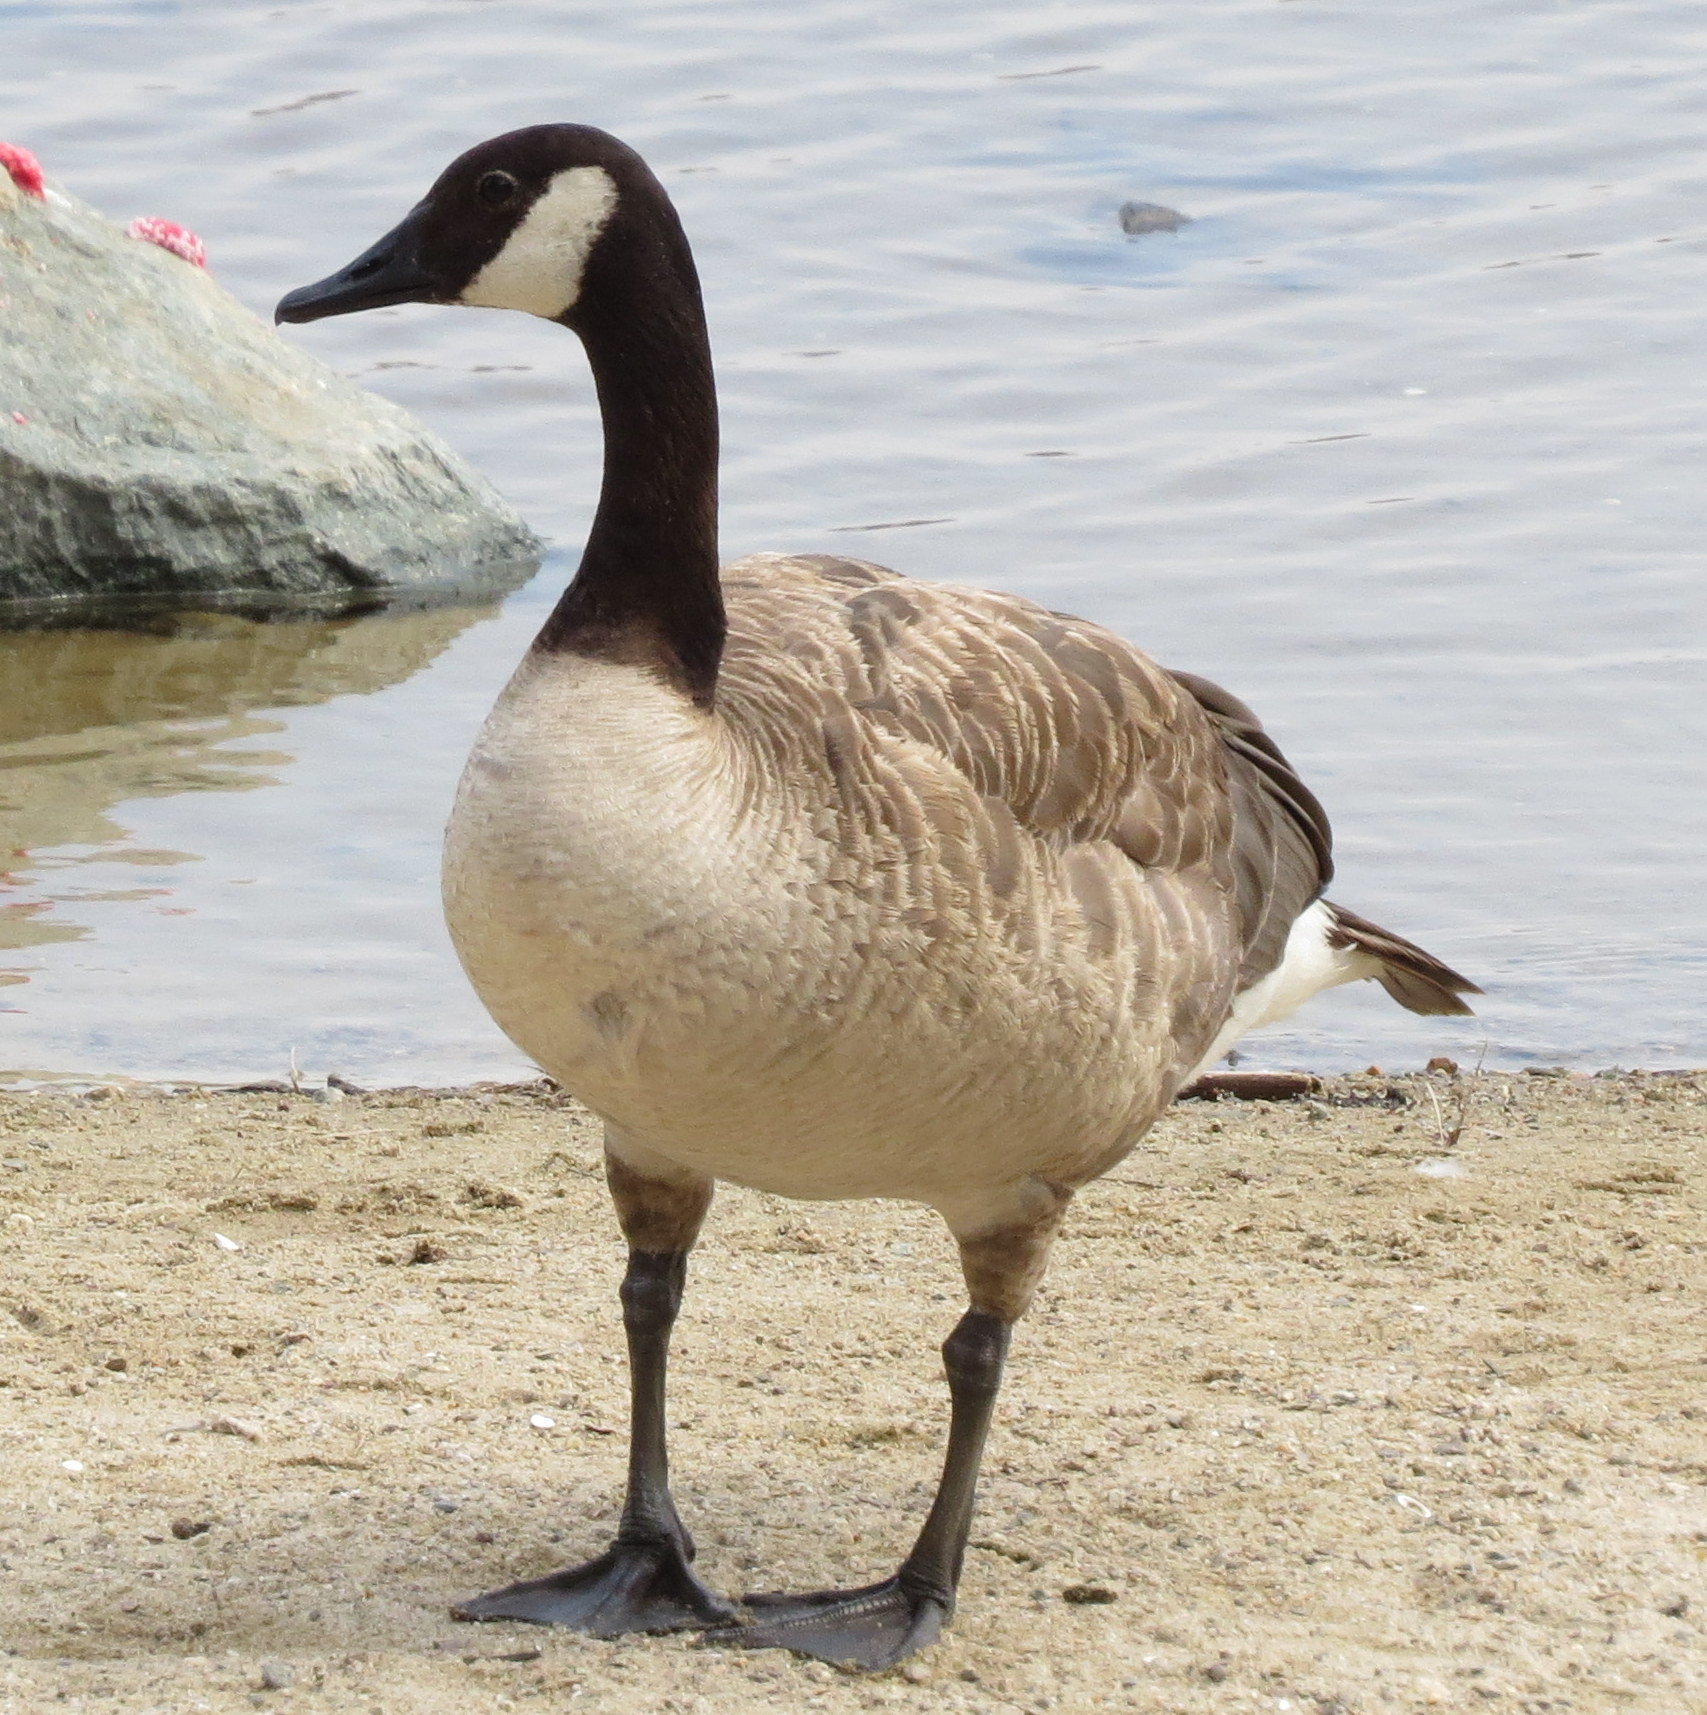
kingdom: Animalia
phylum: Chordata
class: Aves
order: Anseriformes
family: Anatidae
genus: Branta
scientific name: Branta canadensis
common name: Canada goose
